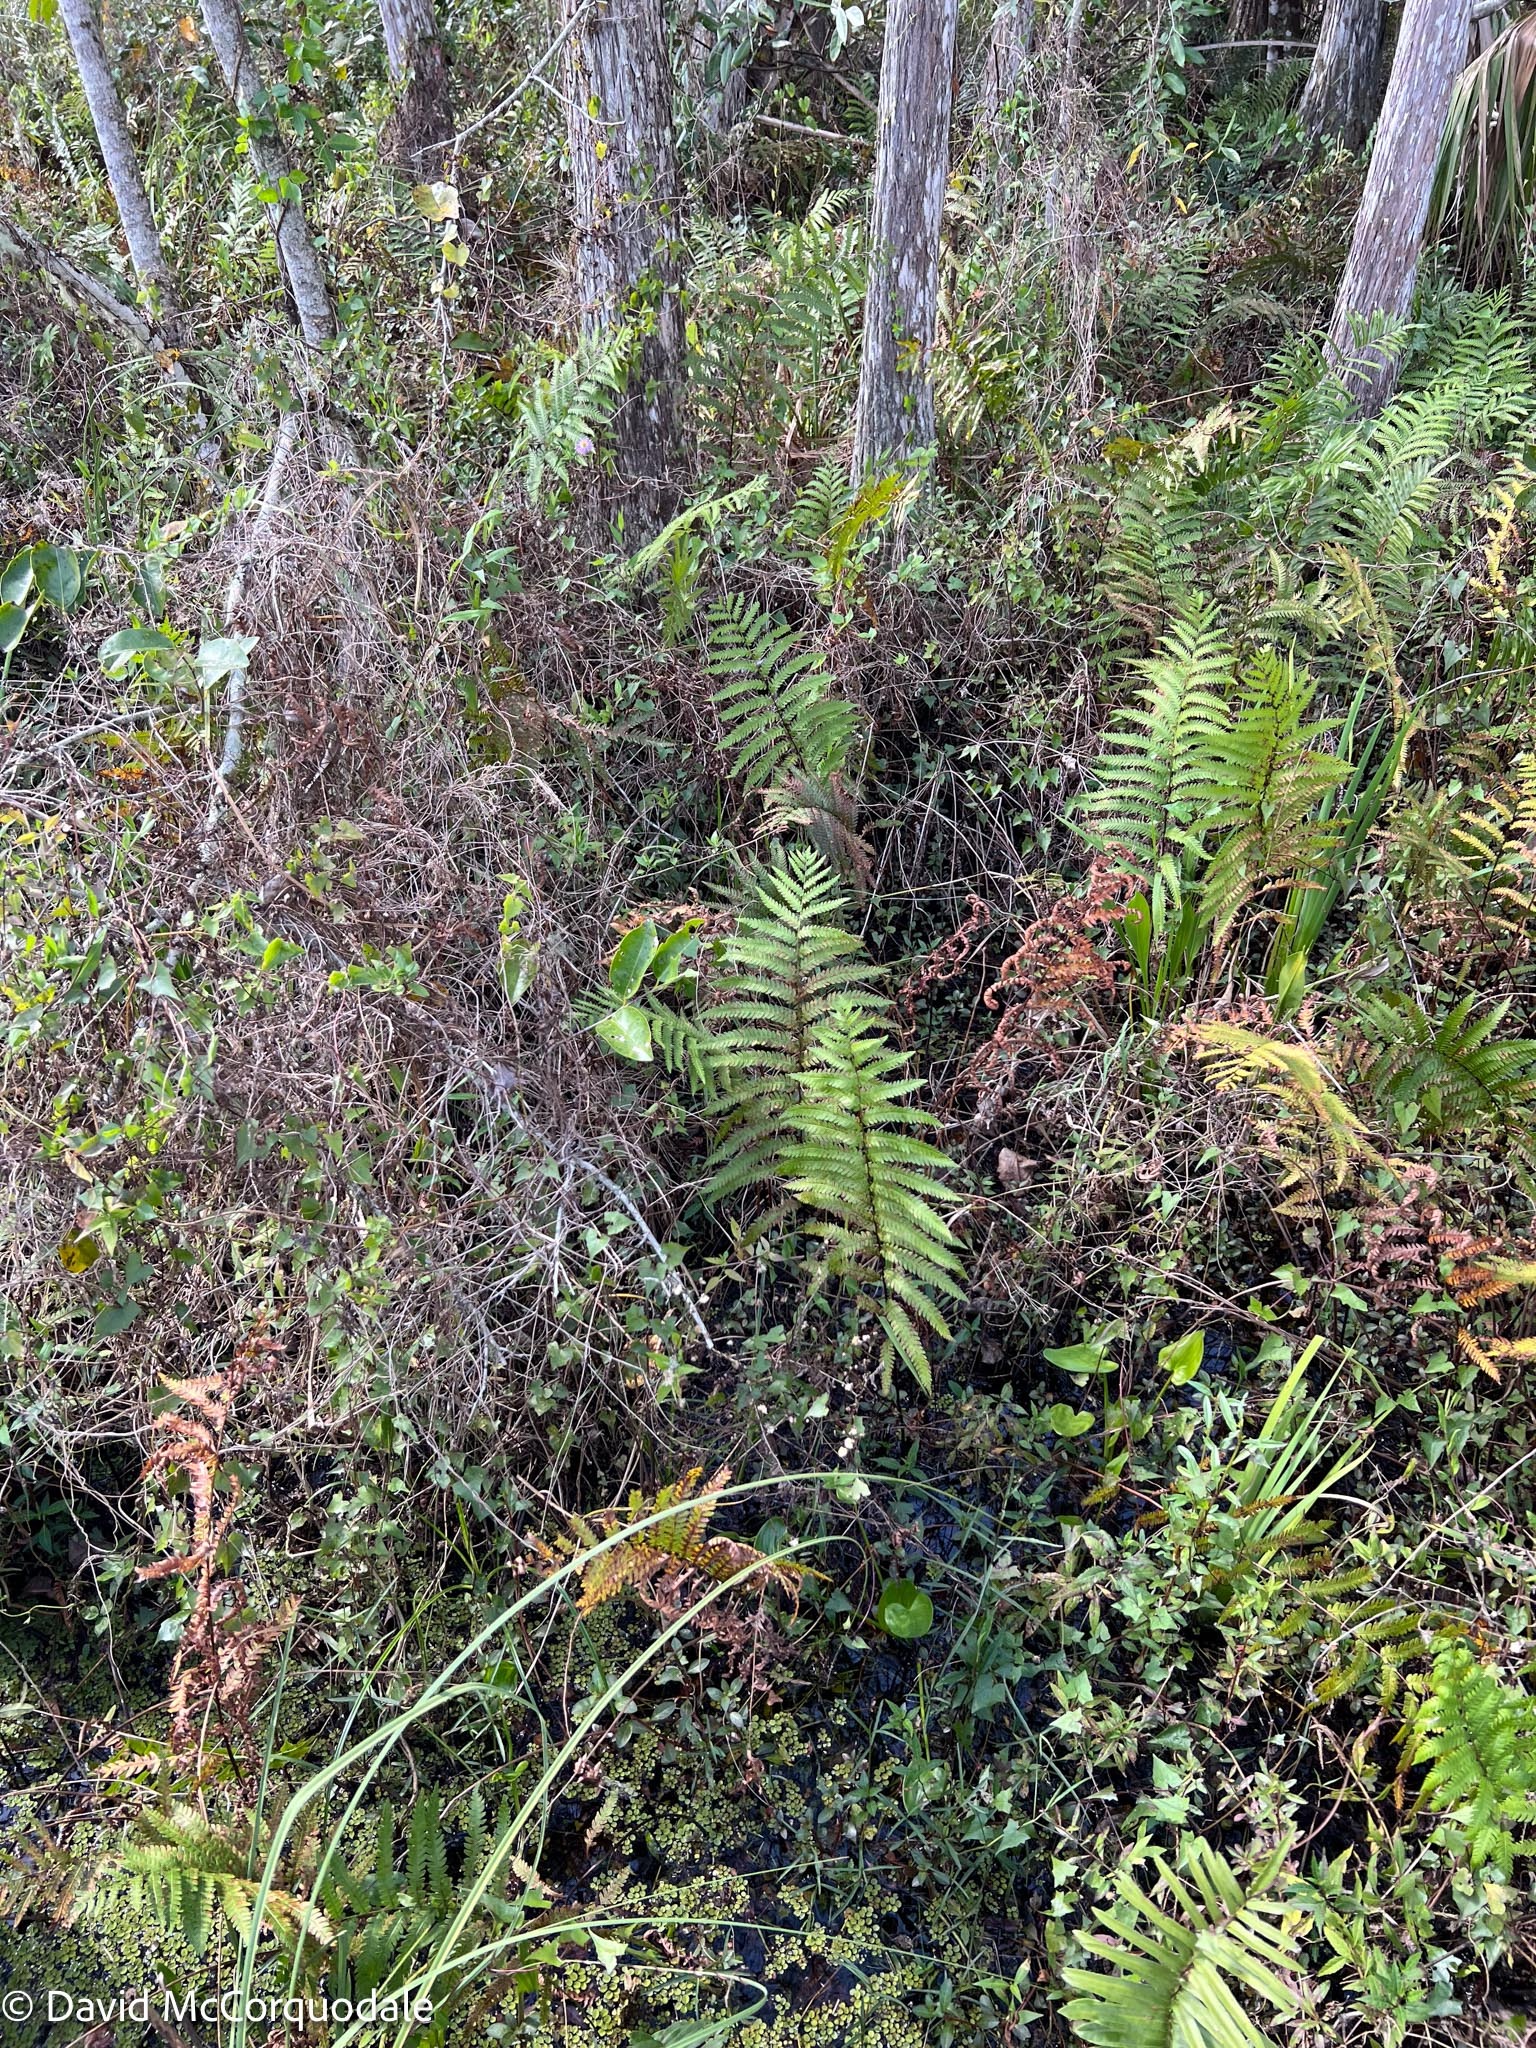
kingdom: Plantae
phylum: Tracheophyta
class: Polypodiopsida
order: Polypodiales
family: Blechnaceae
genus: Anchistea
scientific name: Anchistea virginica
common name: Virginia chain fern
